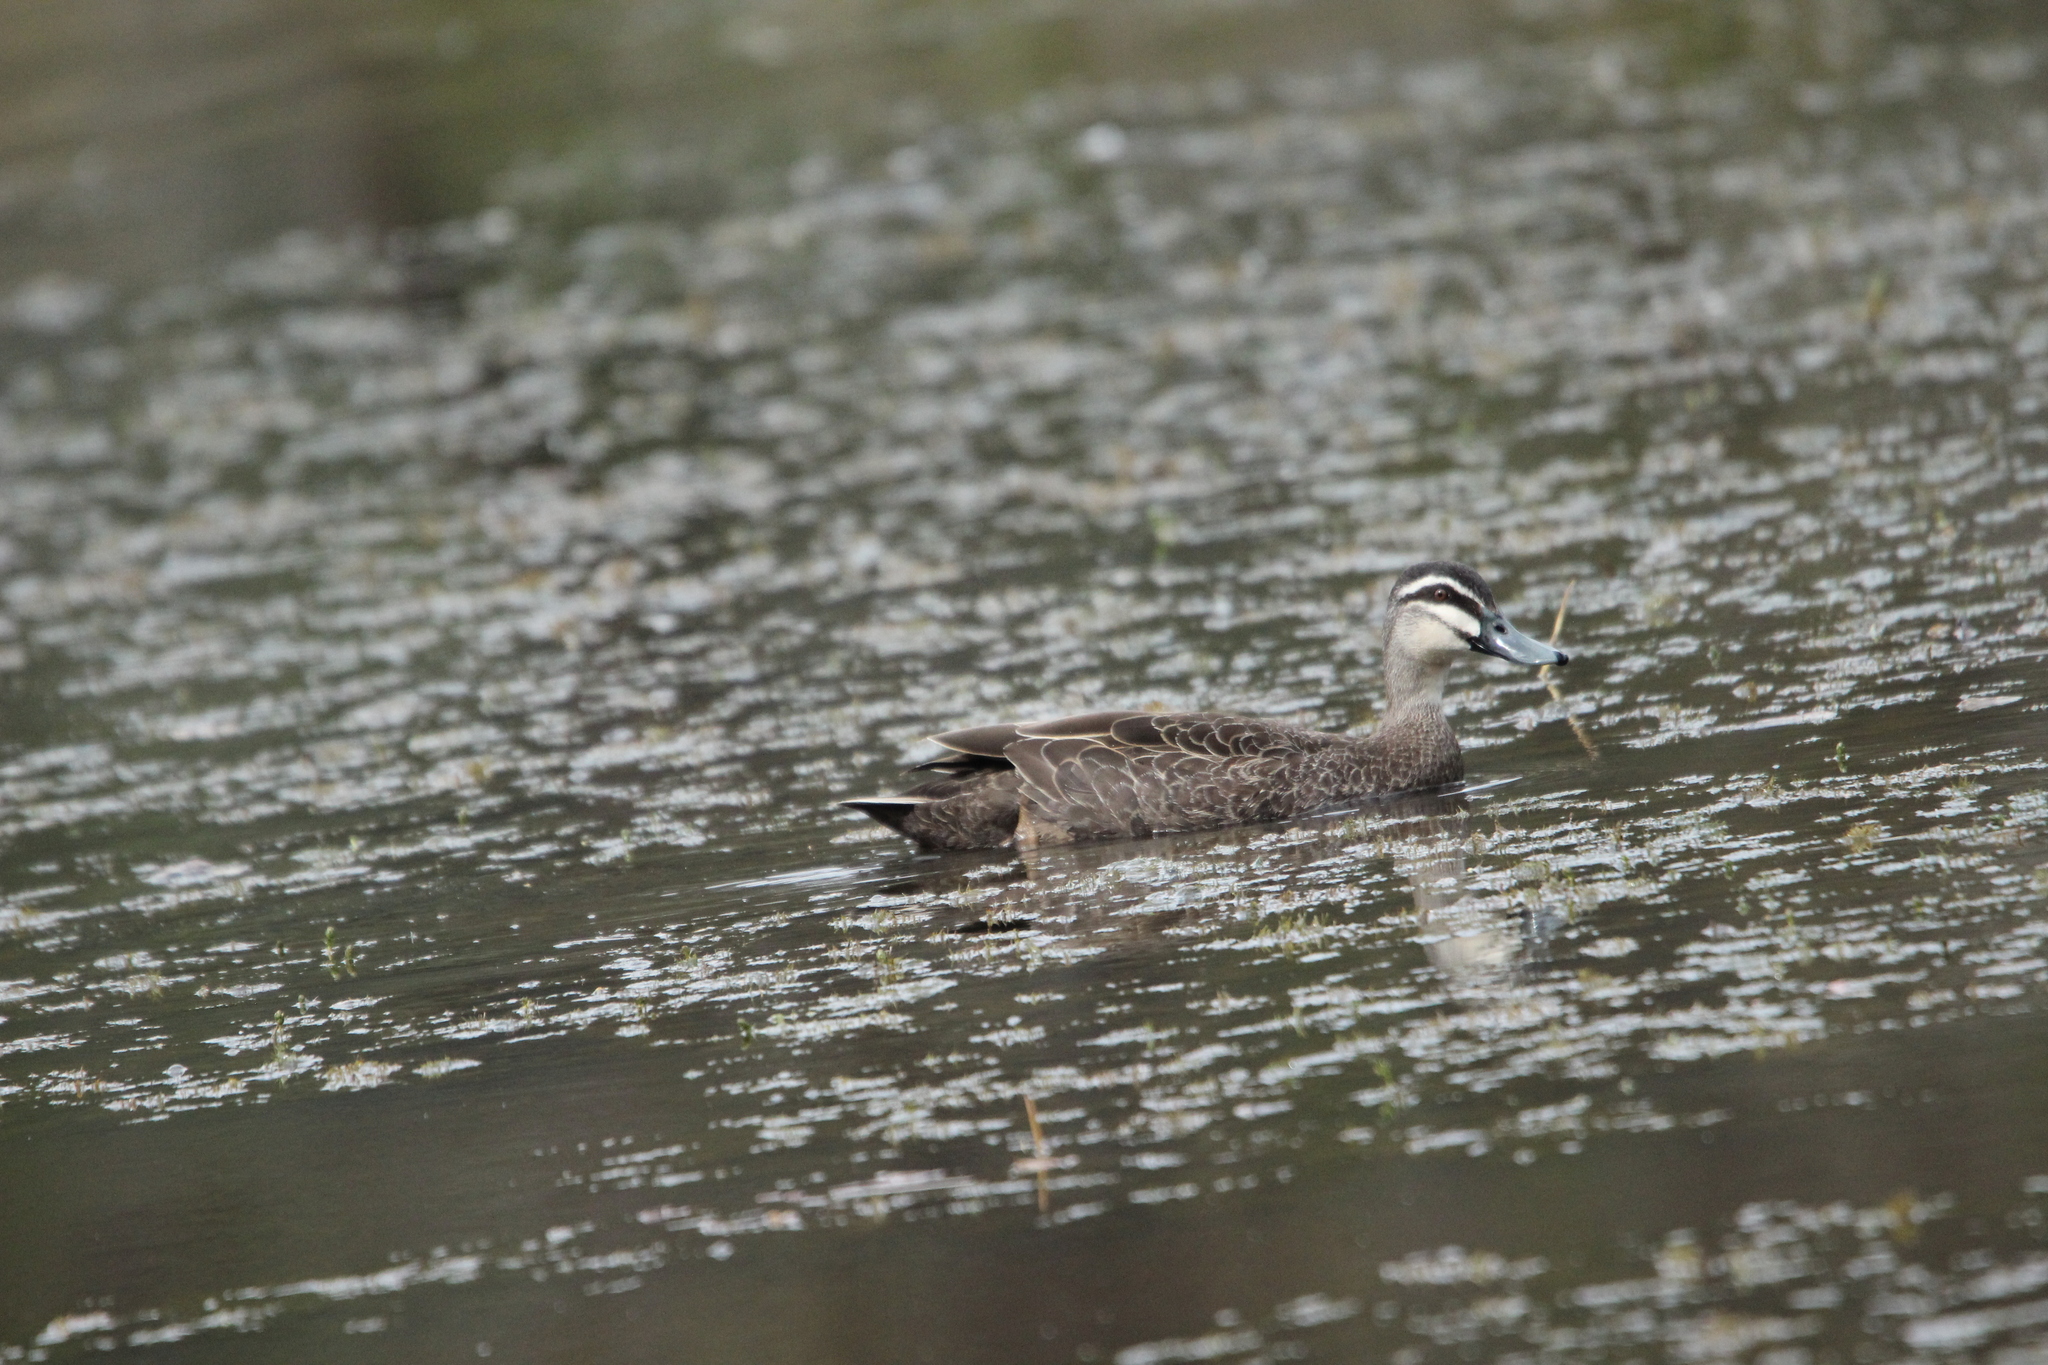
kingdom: Animalia
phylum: Chordata
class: Aves
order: Anseriformes
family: Anatidae
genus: Anas
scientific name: Anas superciliosa
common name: Pacific black duck
